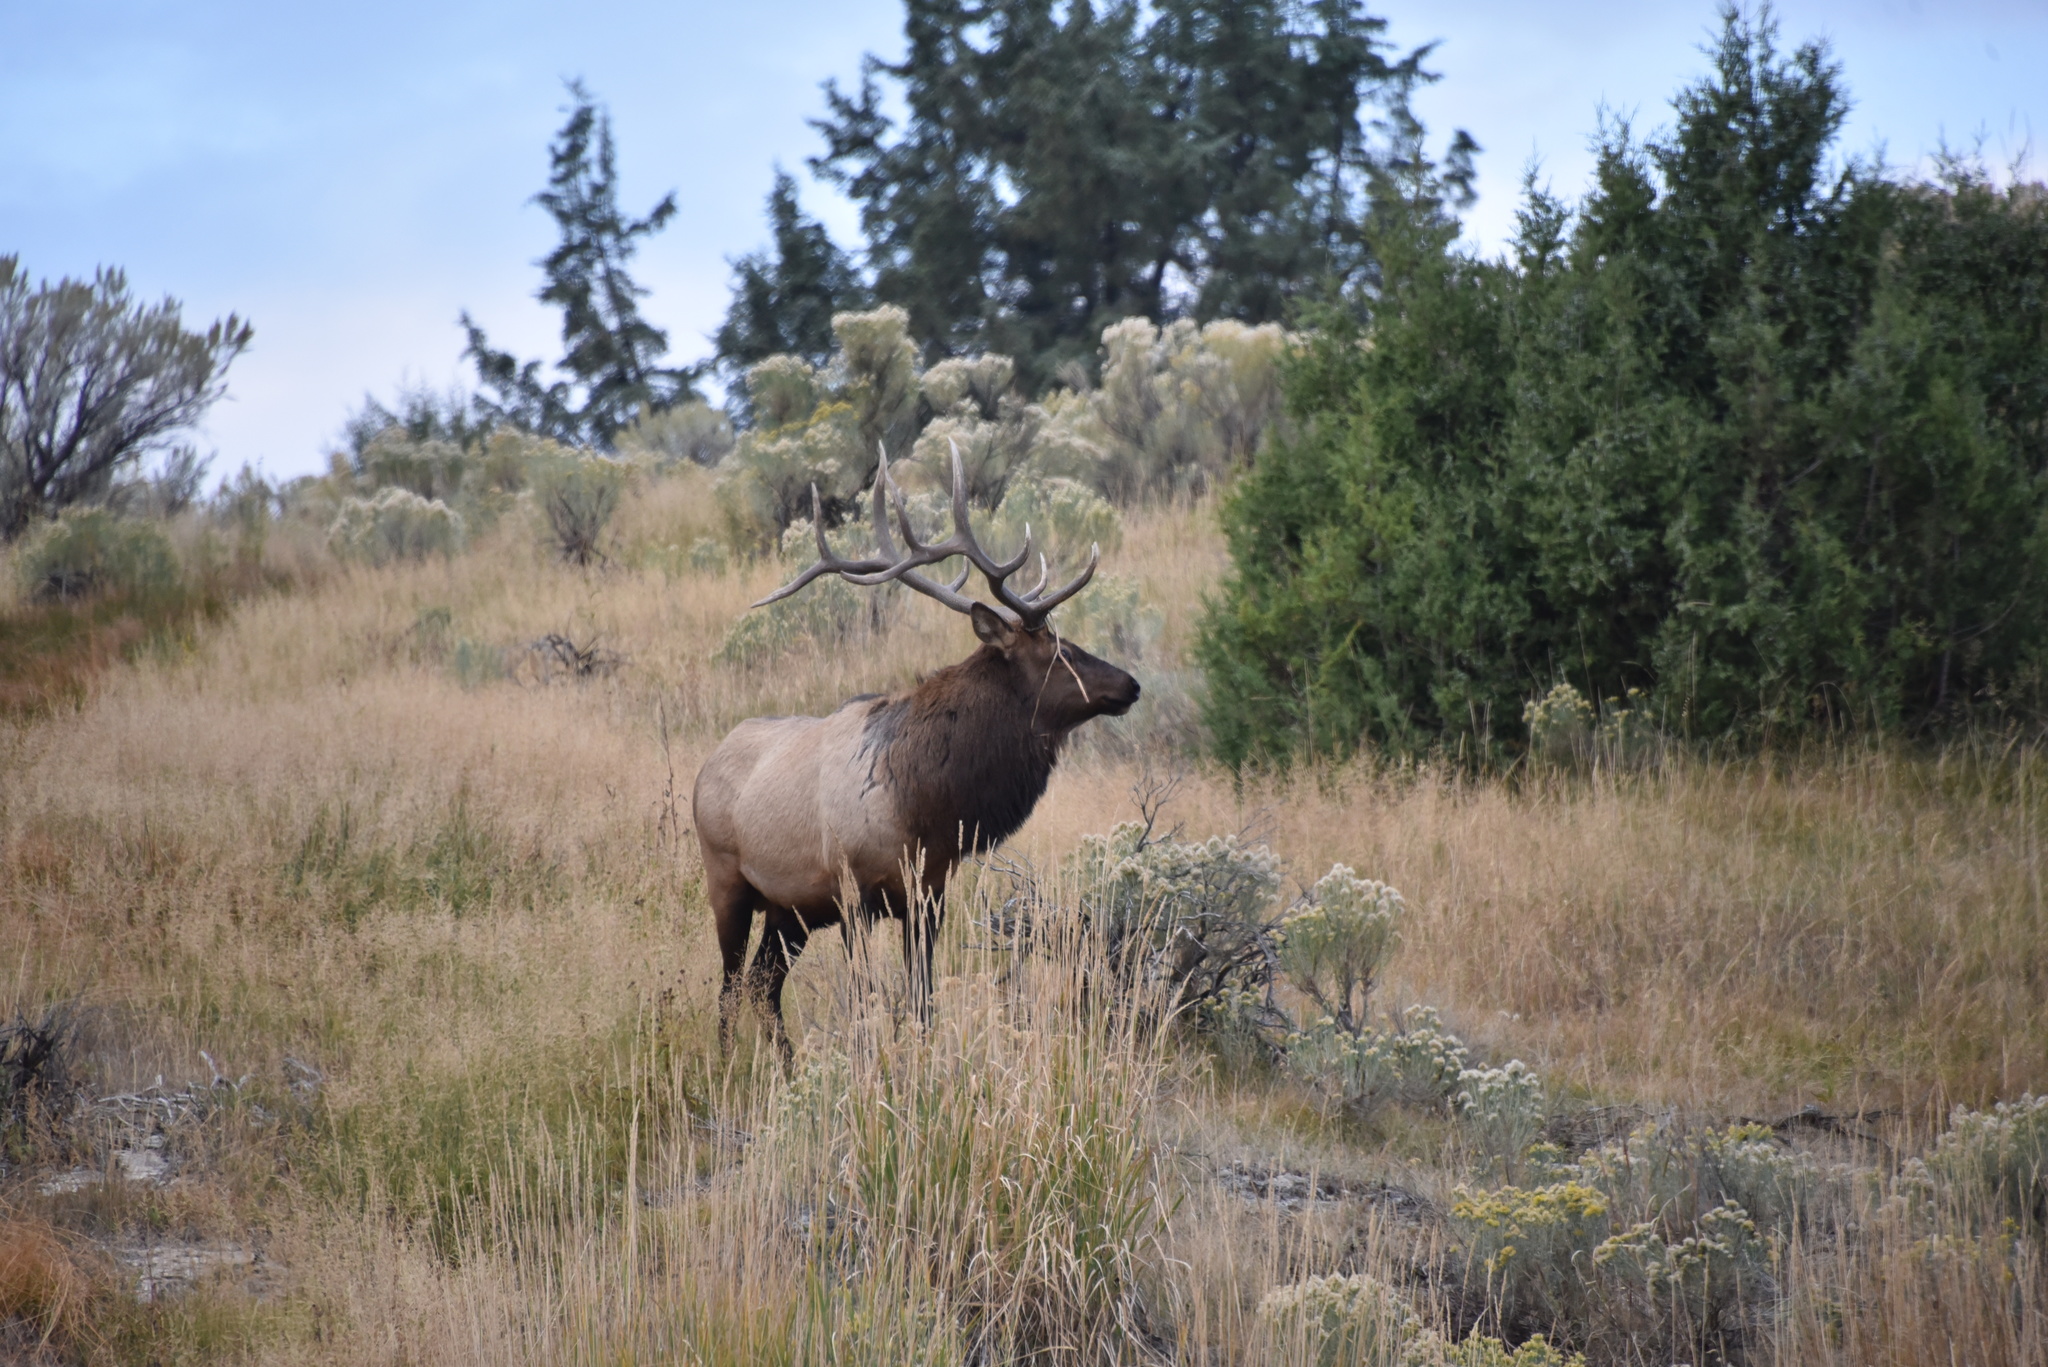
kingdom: Animalia
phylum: Chordata
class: Mammalia
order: Artiodactyla
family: Cervidae
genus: Cervus
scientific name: Cervus elaphus
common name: Red deer
